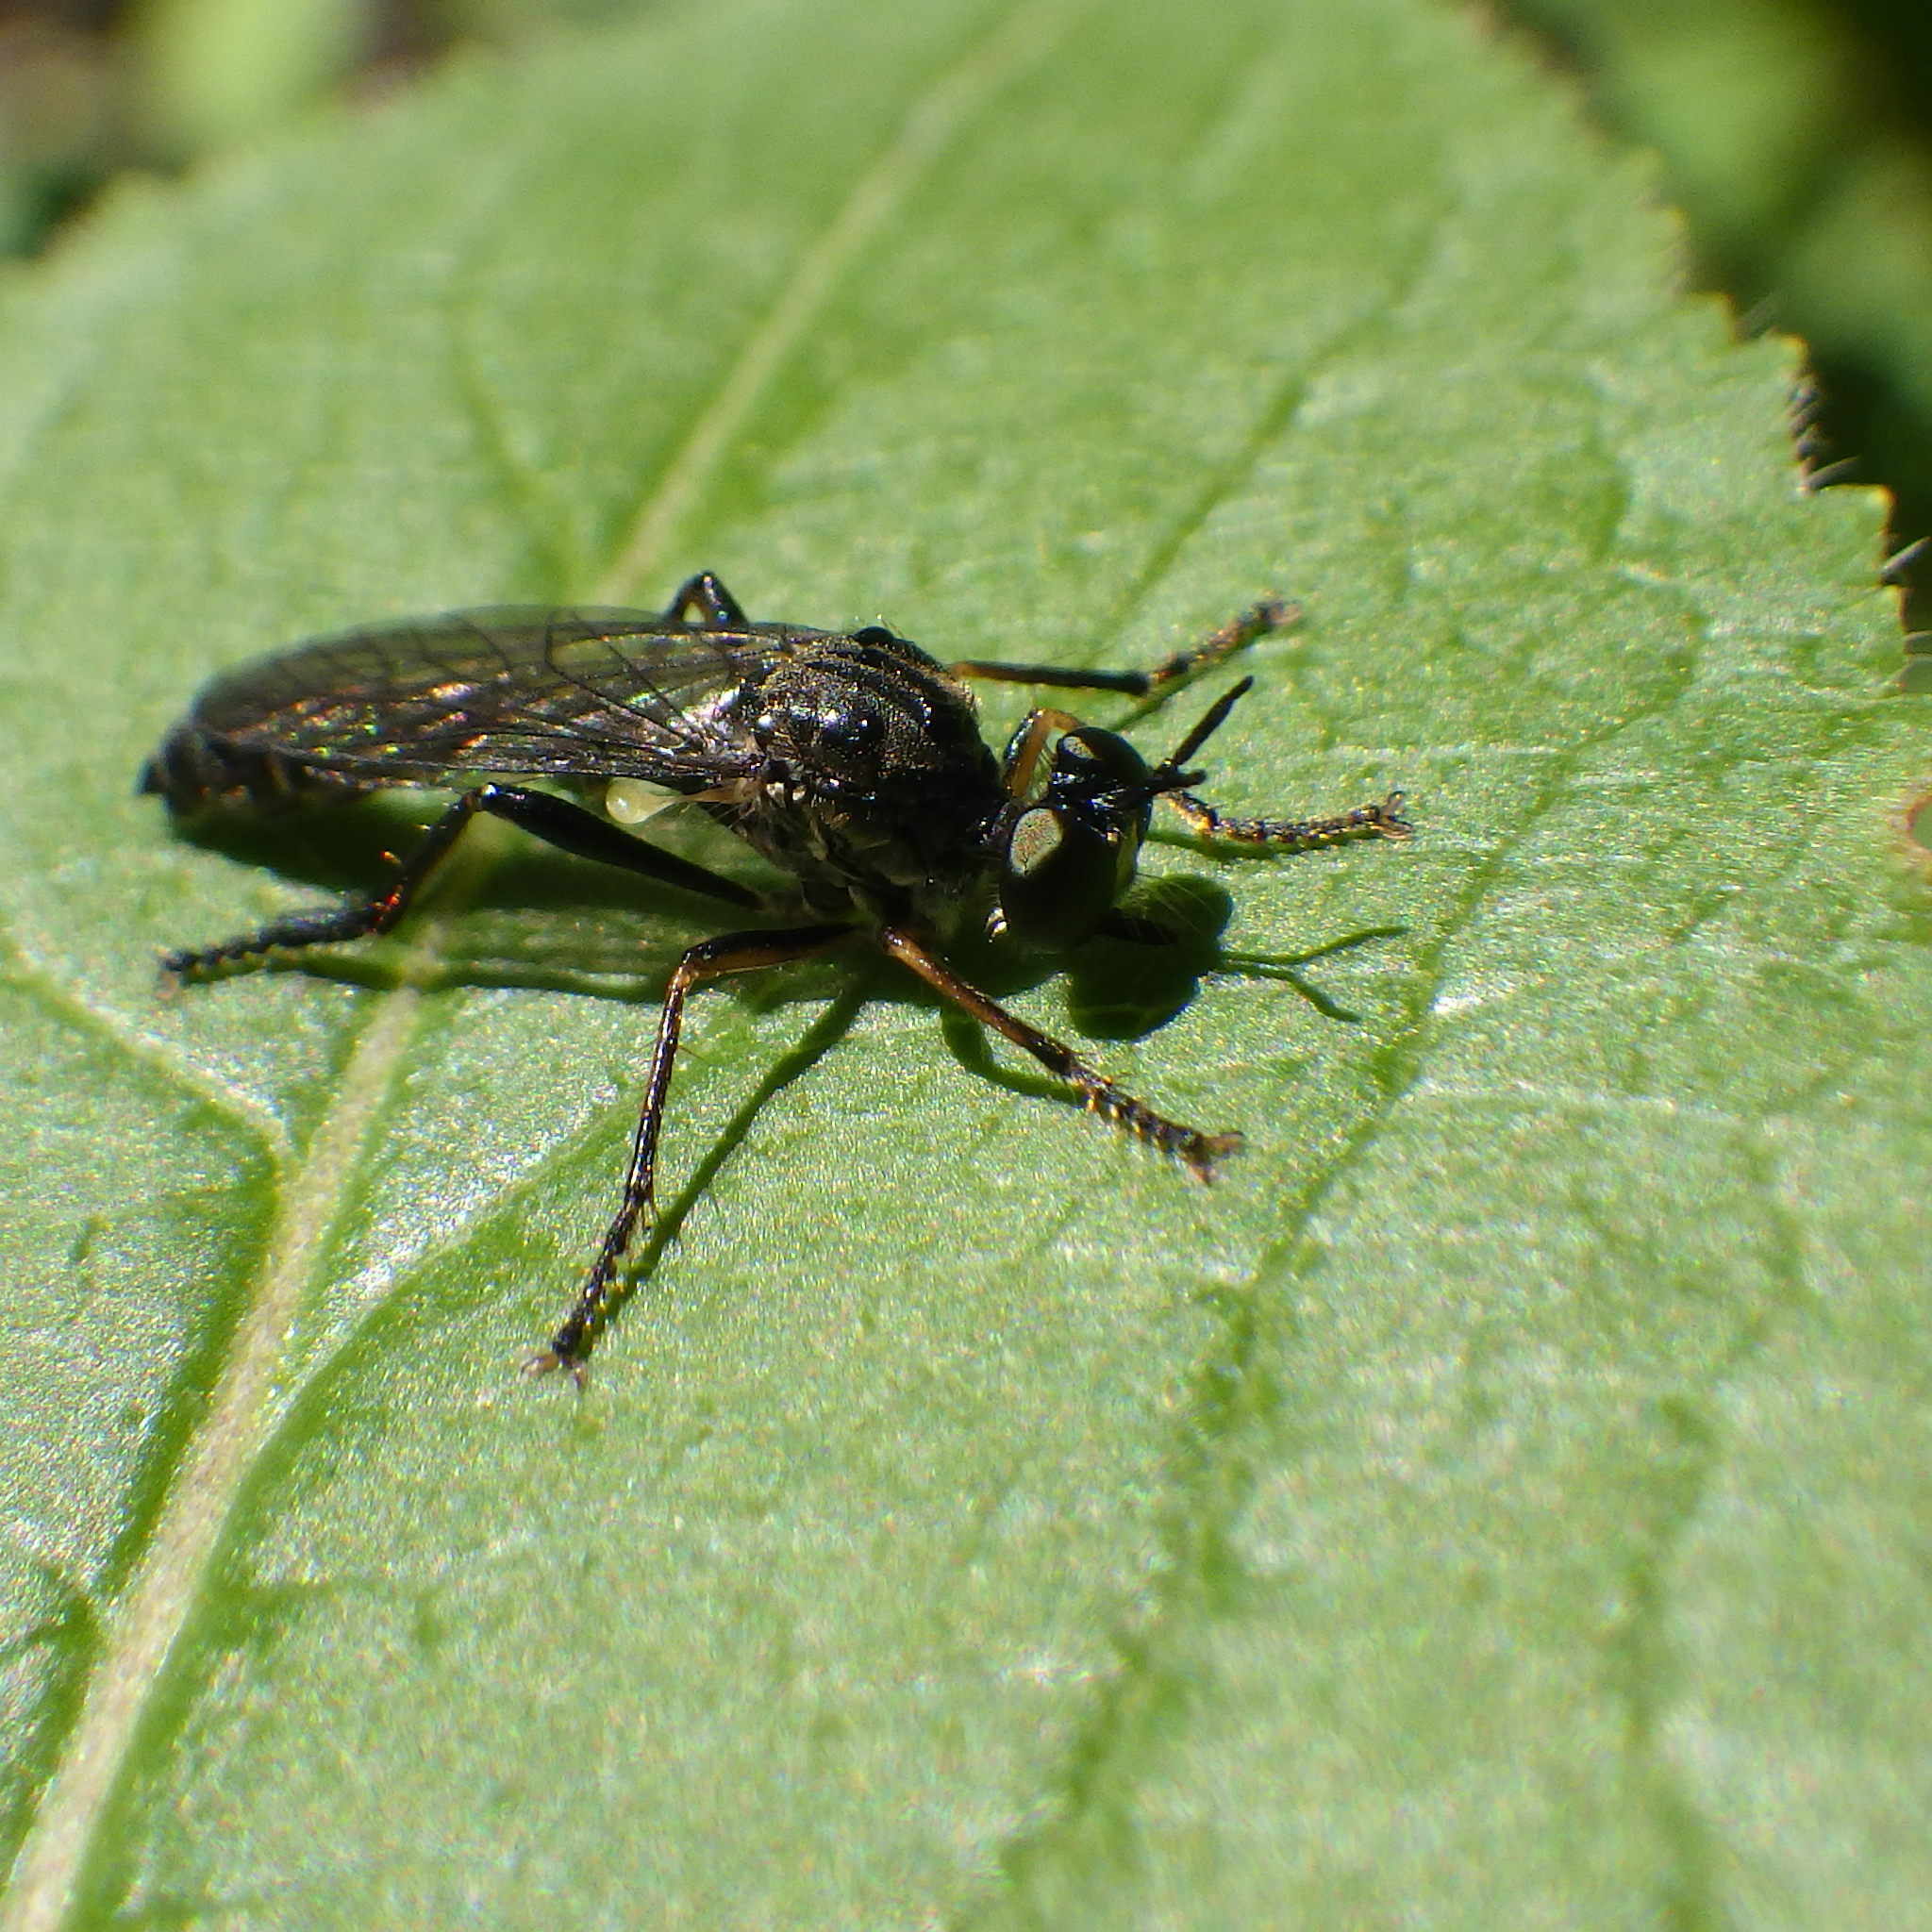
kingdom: Animalia
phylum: Arthropoda
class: Insecta
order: Diptera
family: Asilidae
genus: Dioctria
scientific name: Dioctria hyalipennis
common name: Stripe-legged robberfly
